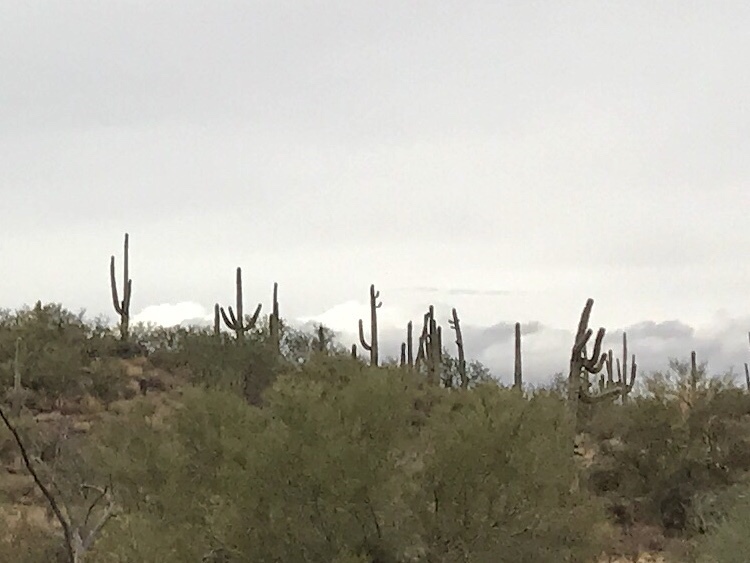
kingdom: Plantae
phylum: Tracheophyta
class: Magnoliopsida
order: Caryophyllales
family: Cactaceae
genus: Carnegiea
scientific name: Carnegiea gigantea
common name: Saguaro
